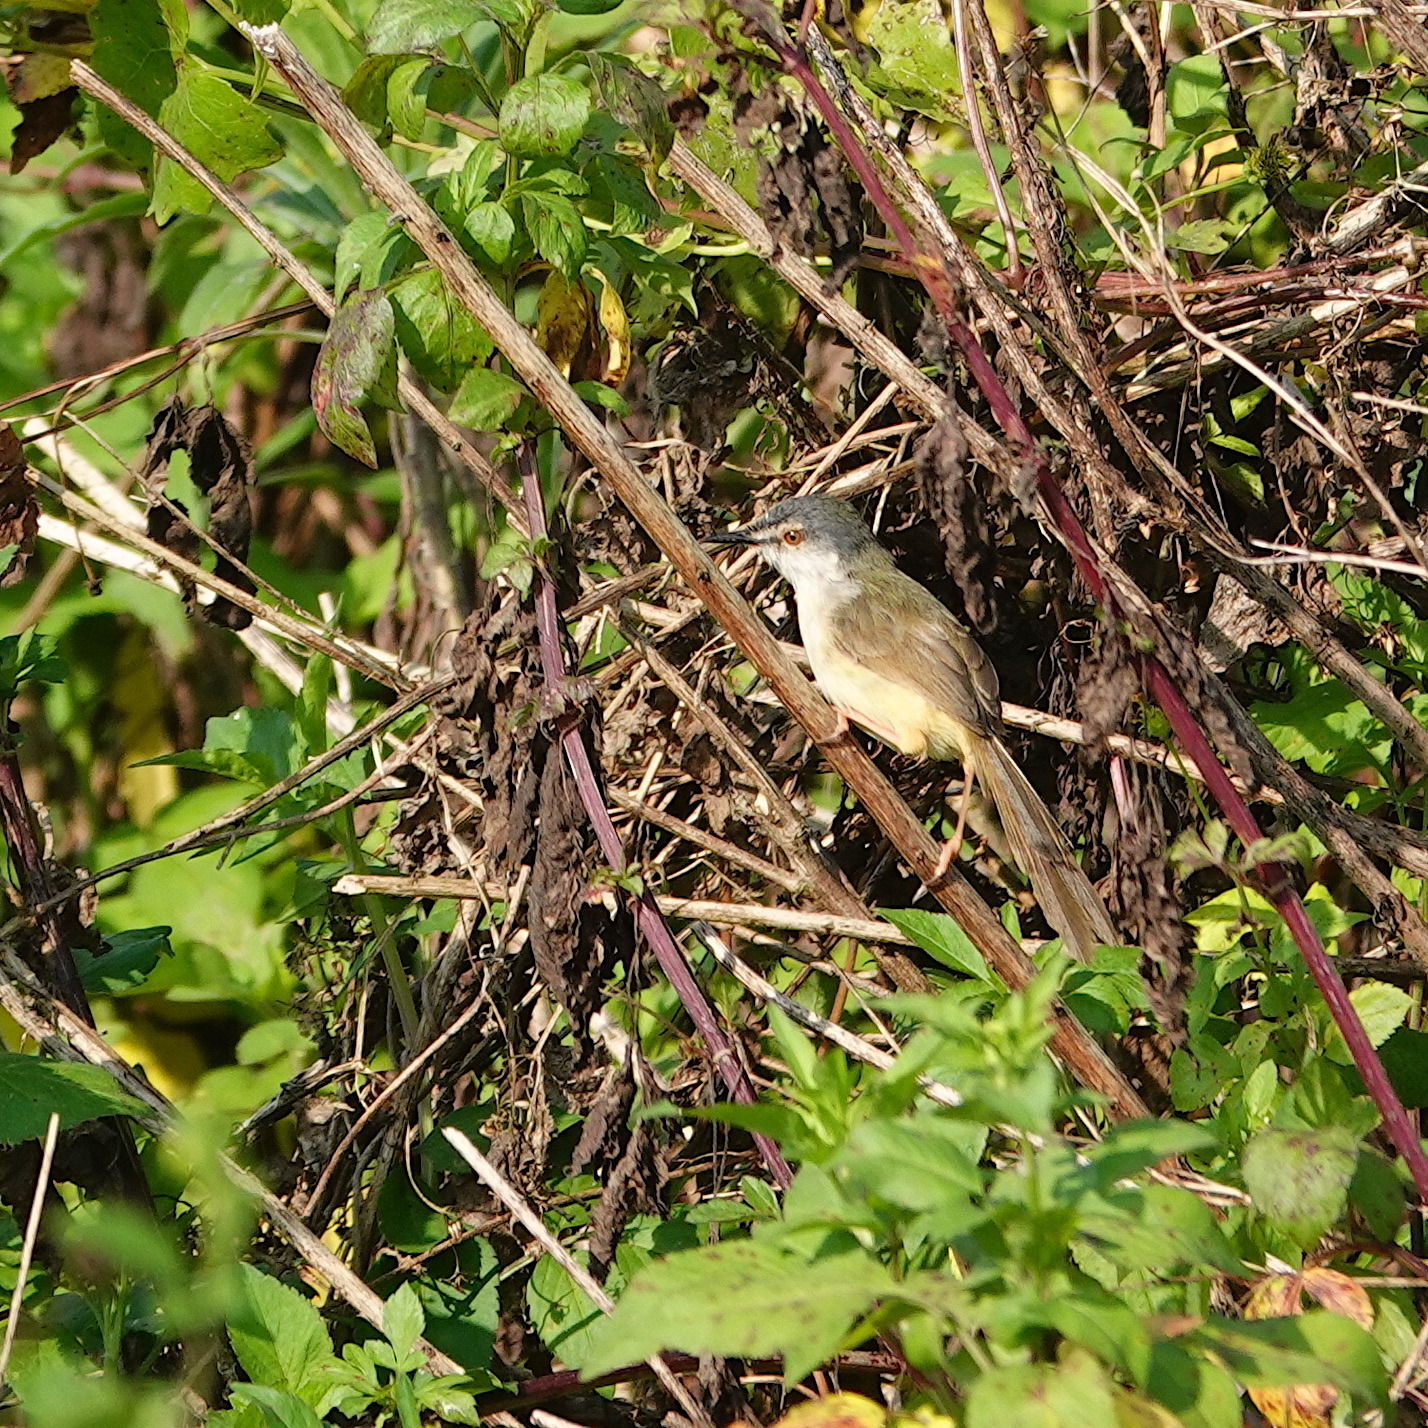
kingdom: Animalia
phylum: Chordata
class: Aves
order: Passeriformes
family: Cisticolidae
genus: Prinia
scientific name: Prinia flaviventris
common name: Yellow-bellied prinia
